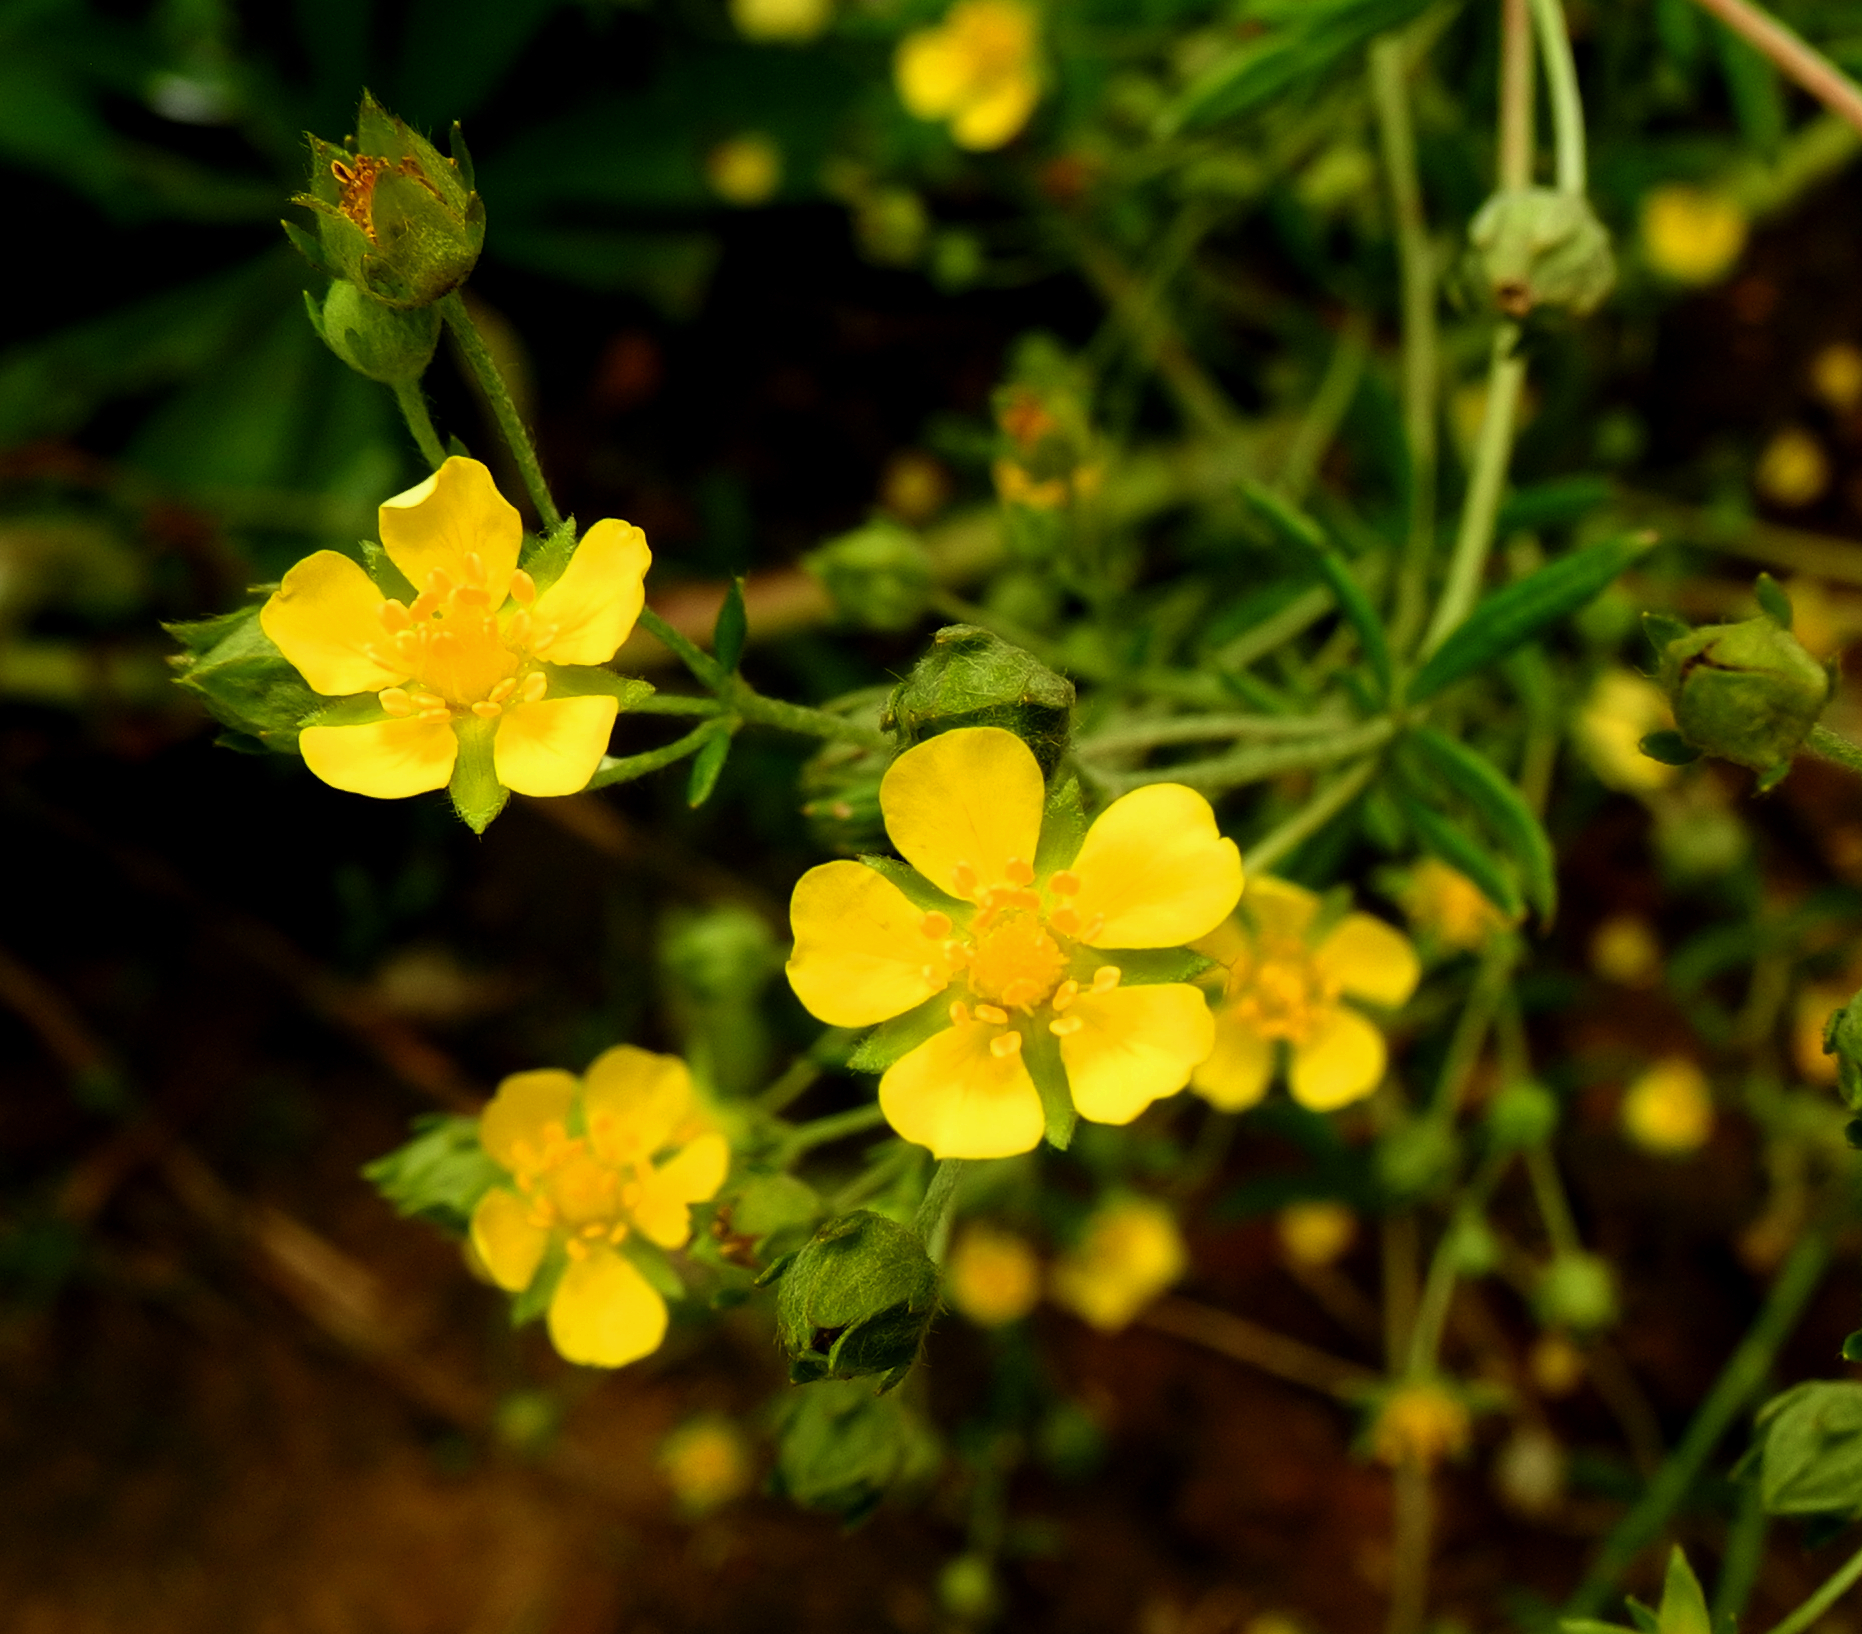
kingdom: Plantae
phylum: Tracheophyta
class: Magnoliopsida
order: Rosales
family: Rosaceae
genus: Potentilla
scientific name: Potentilla argentea
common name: Hoary cinquefoil
